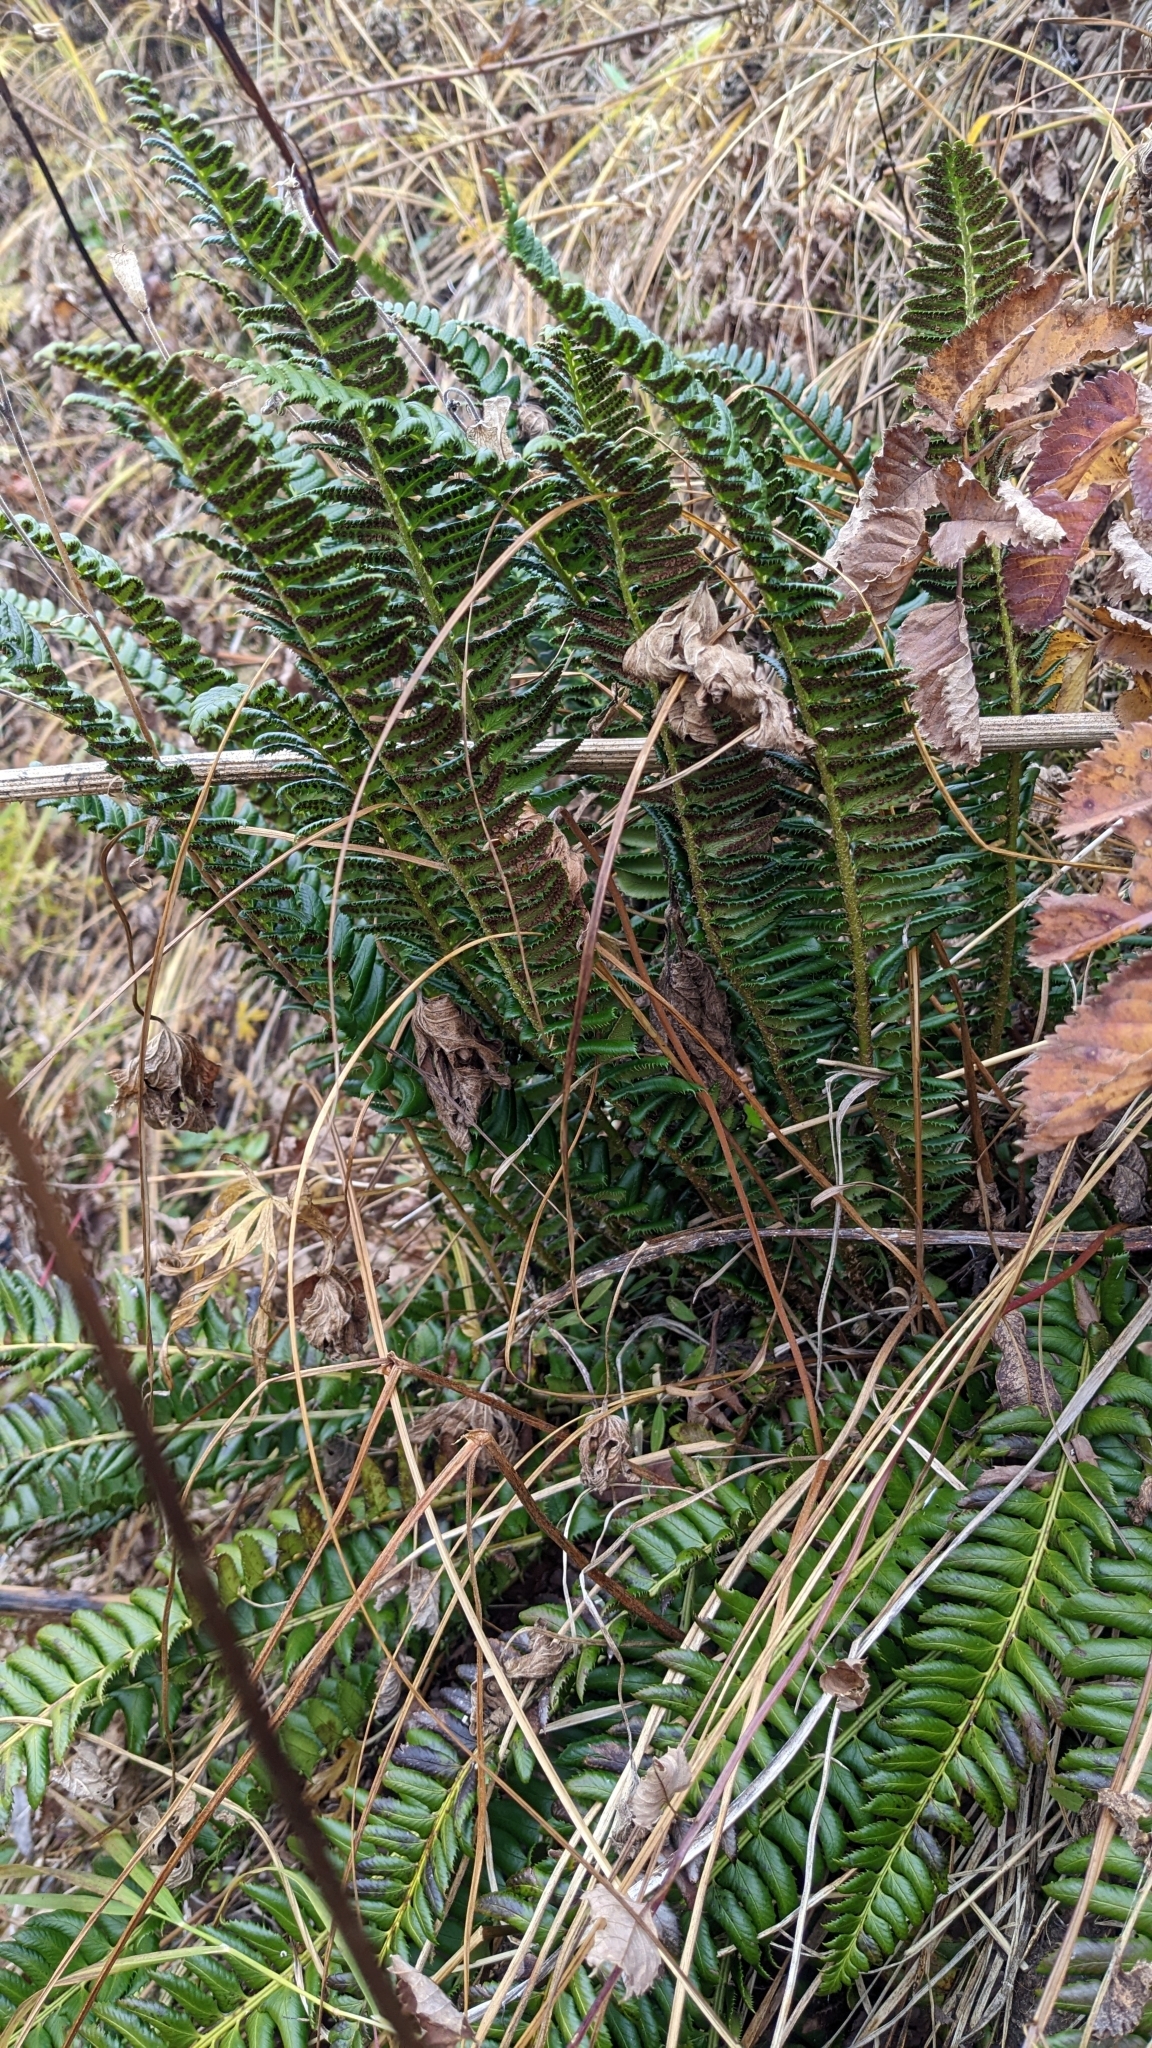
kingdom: Plantae
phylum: Tracheophyta
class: Polypodiopsida
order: Polypodiales
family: Dryopteridaceae
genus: Polystichum
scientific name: Polystichum lonchitis
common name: Holly fern
